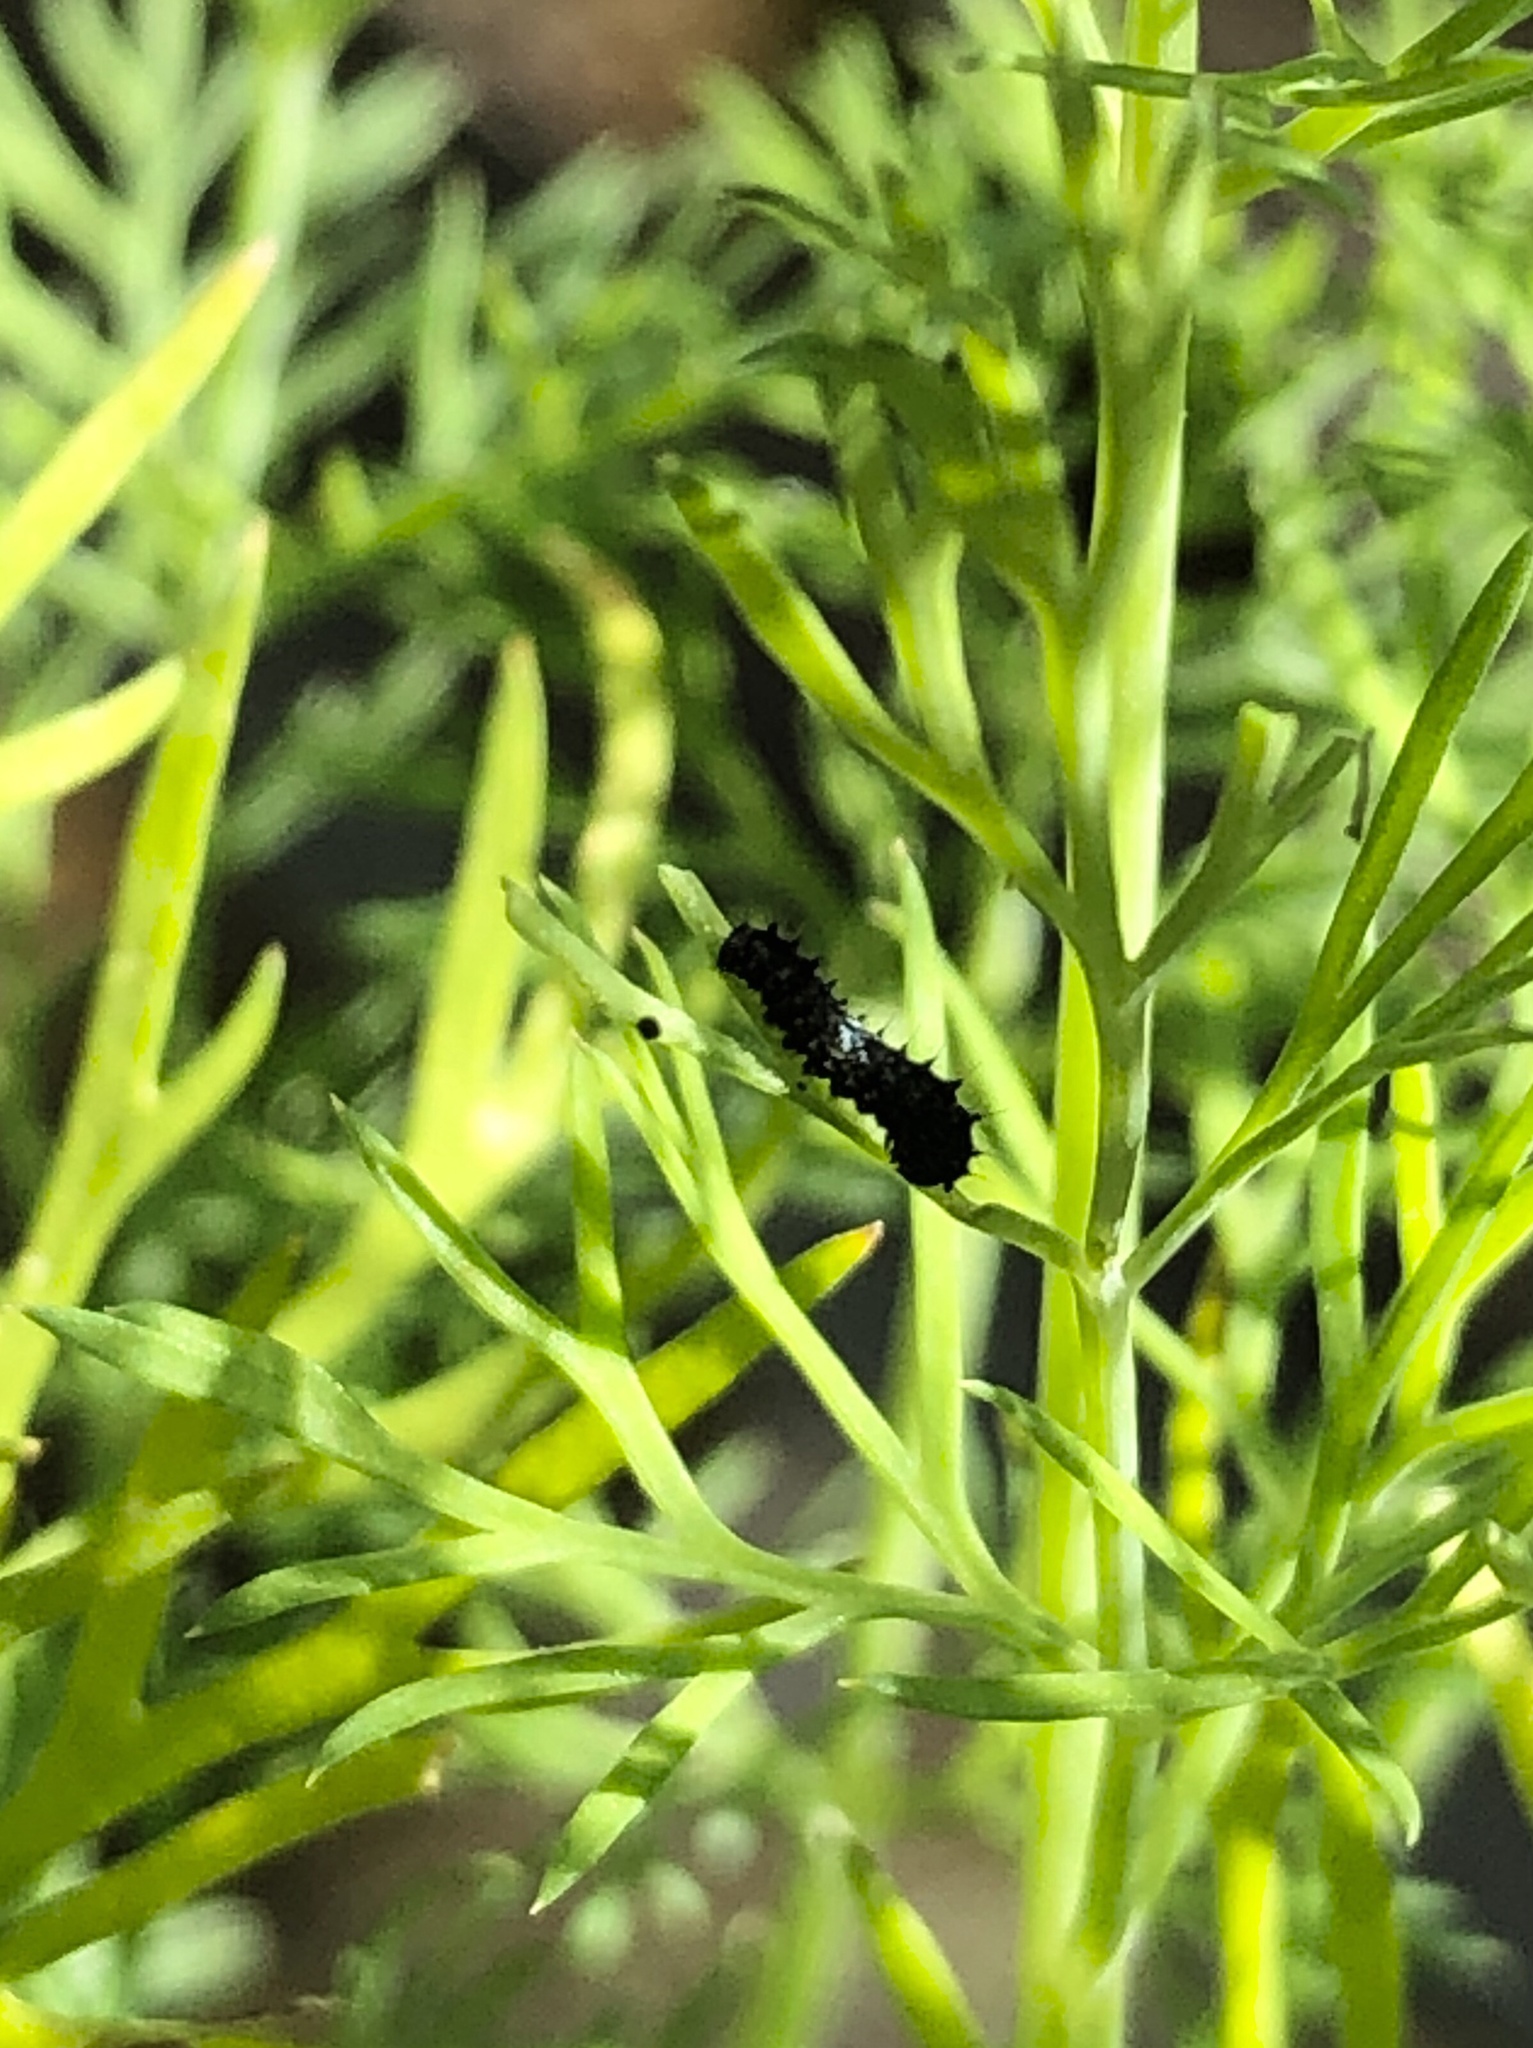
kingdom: Animalia
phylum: Arthropoda
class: Insecta
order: Lepidoptera
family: Papilionidae
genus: Papilio
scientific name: Papilio zelicaon
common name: Anise swallowtail
